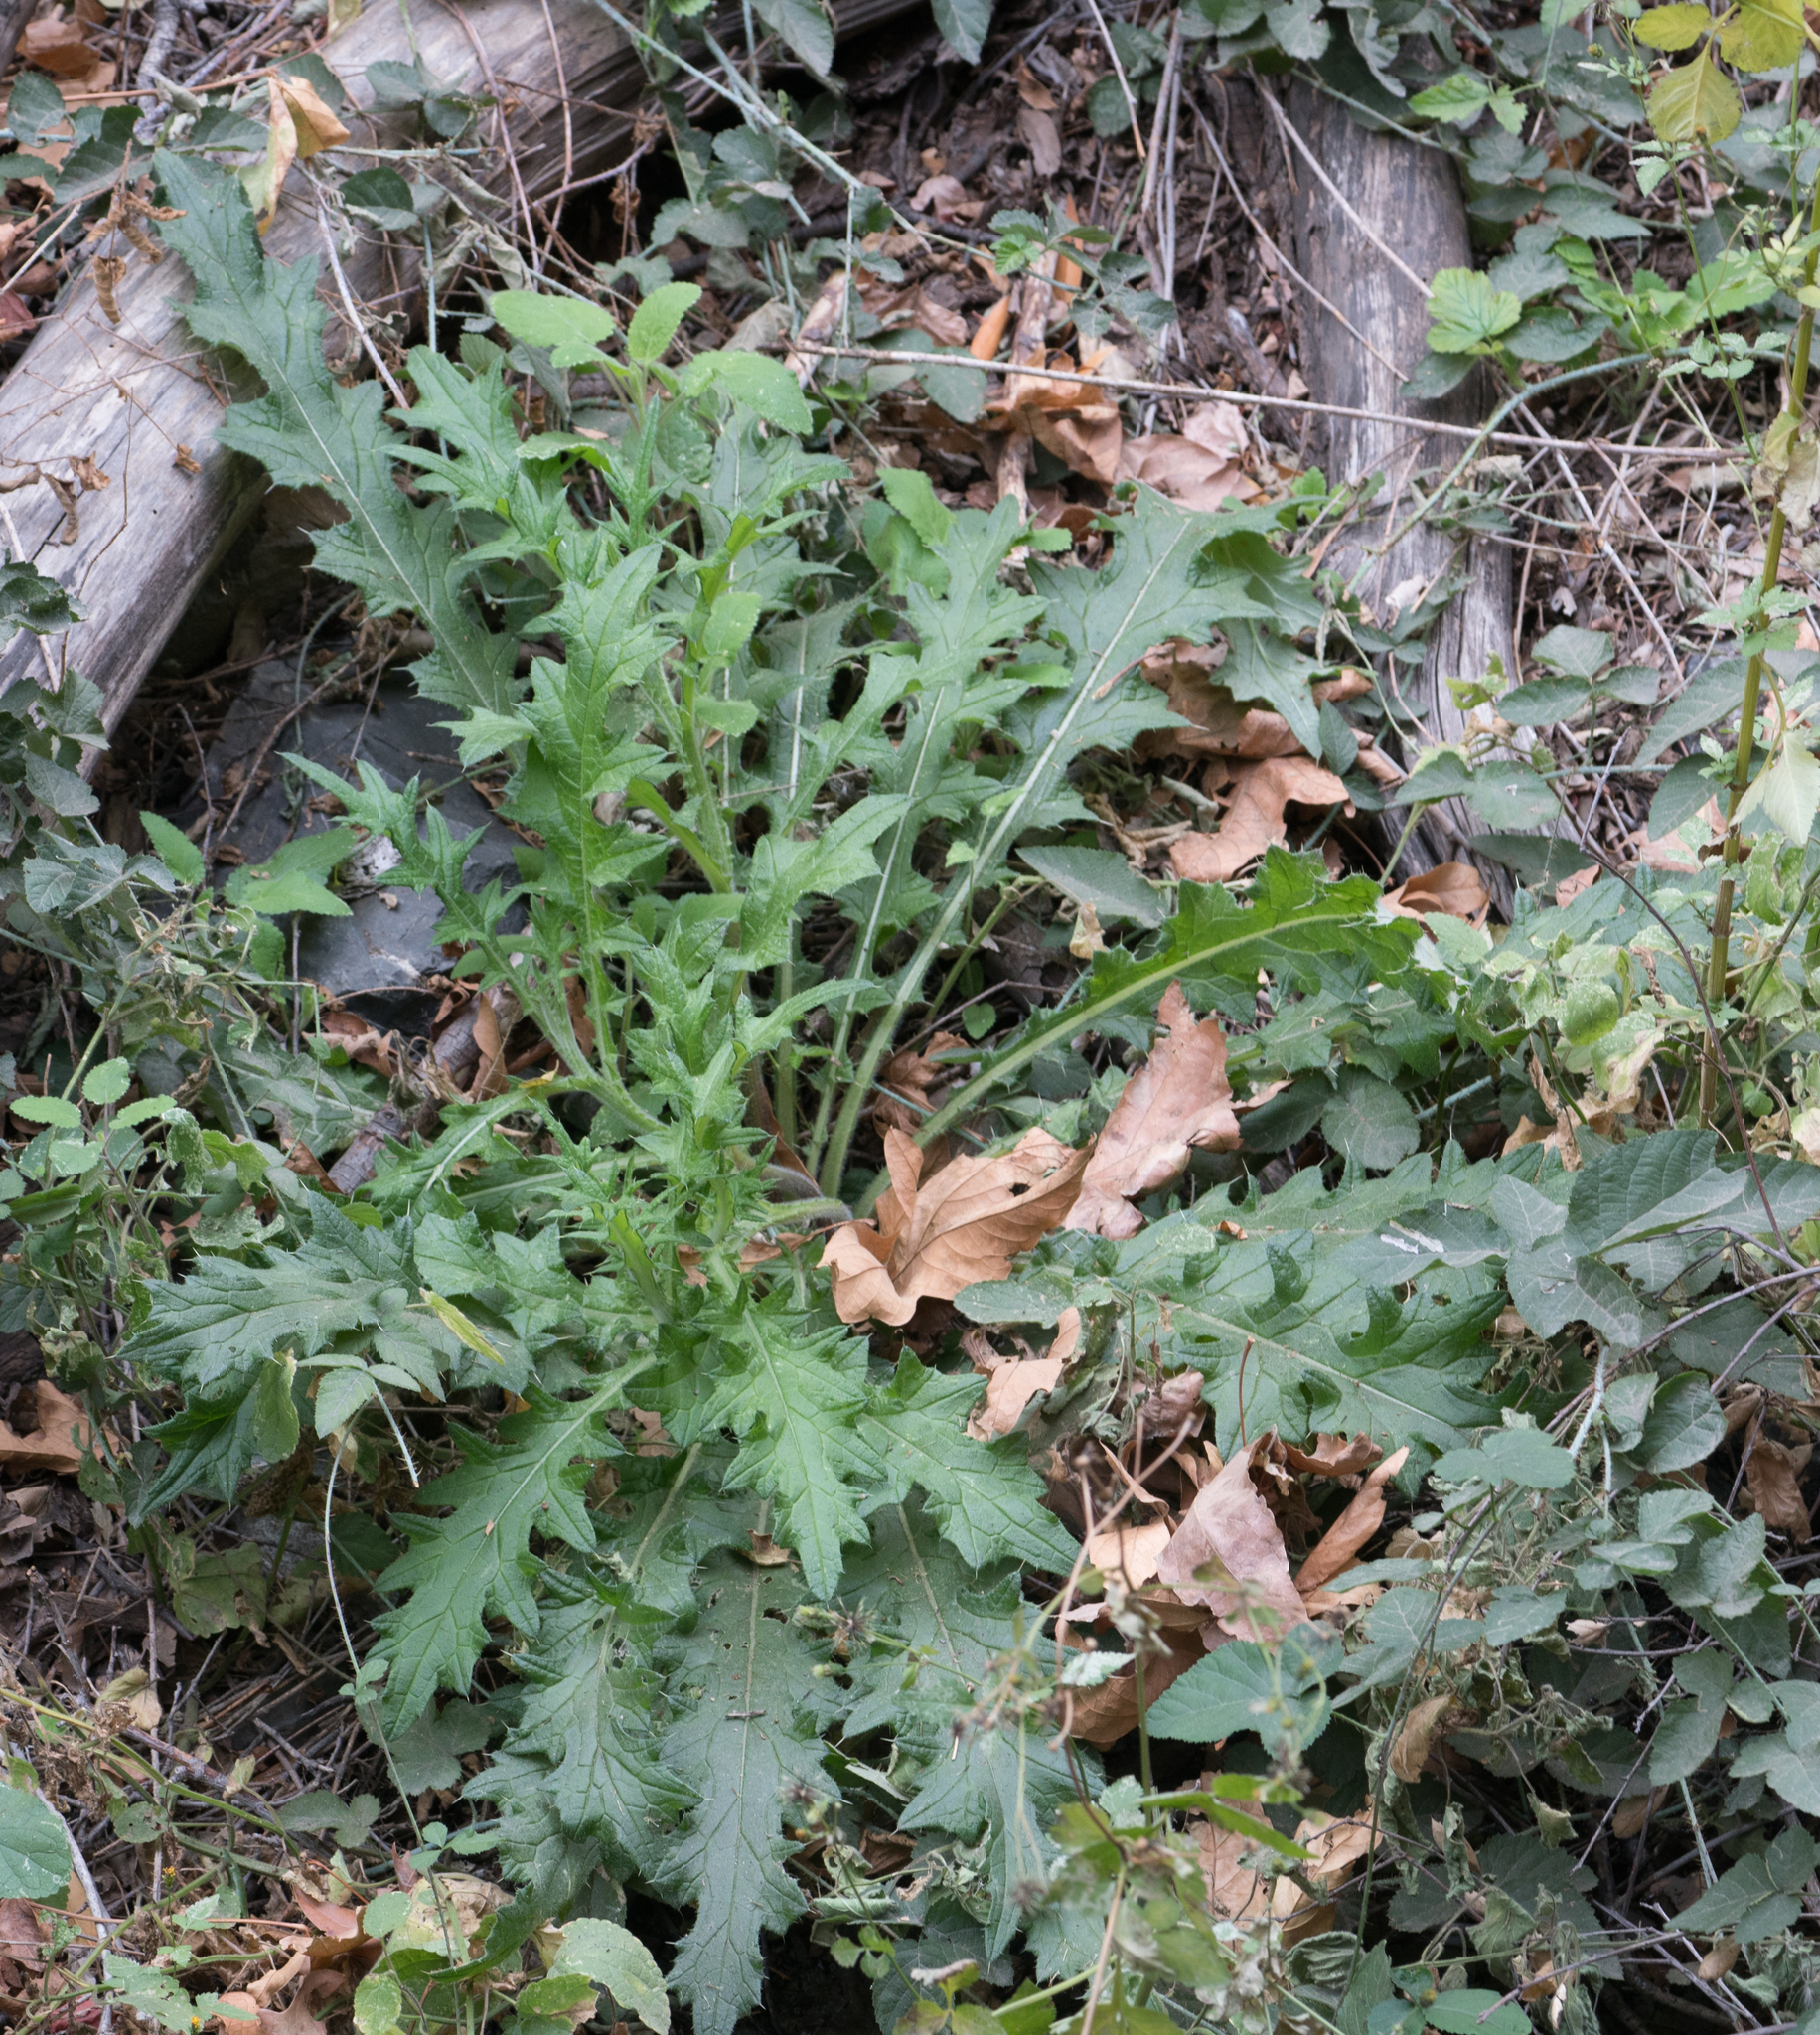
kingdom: Plantae
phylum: Tracheophyta
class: Magnoliopsida
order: Asterales
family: Asteraceae
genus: Cirsium
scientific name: Cirsium vulgare
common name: Bull thistle
